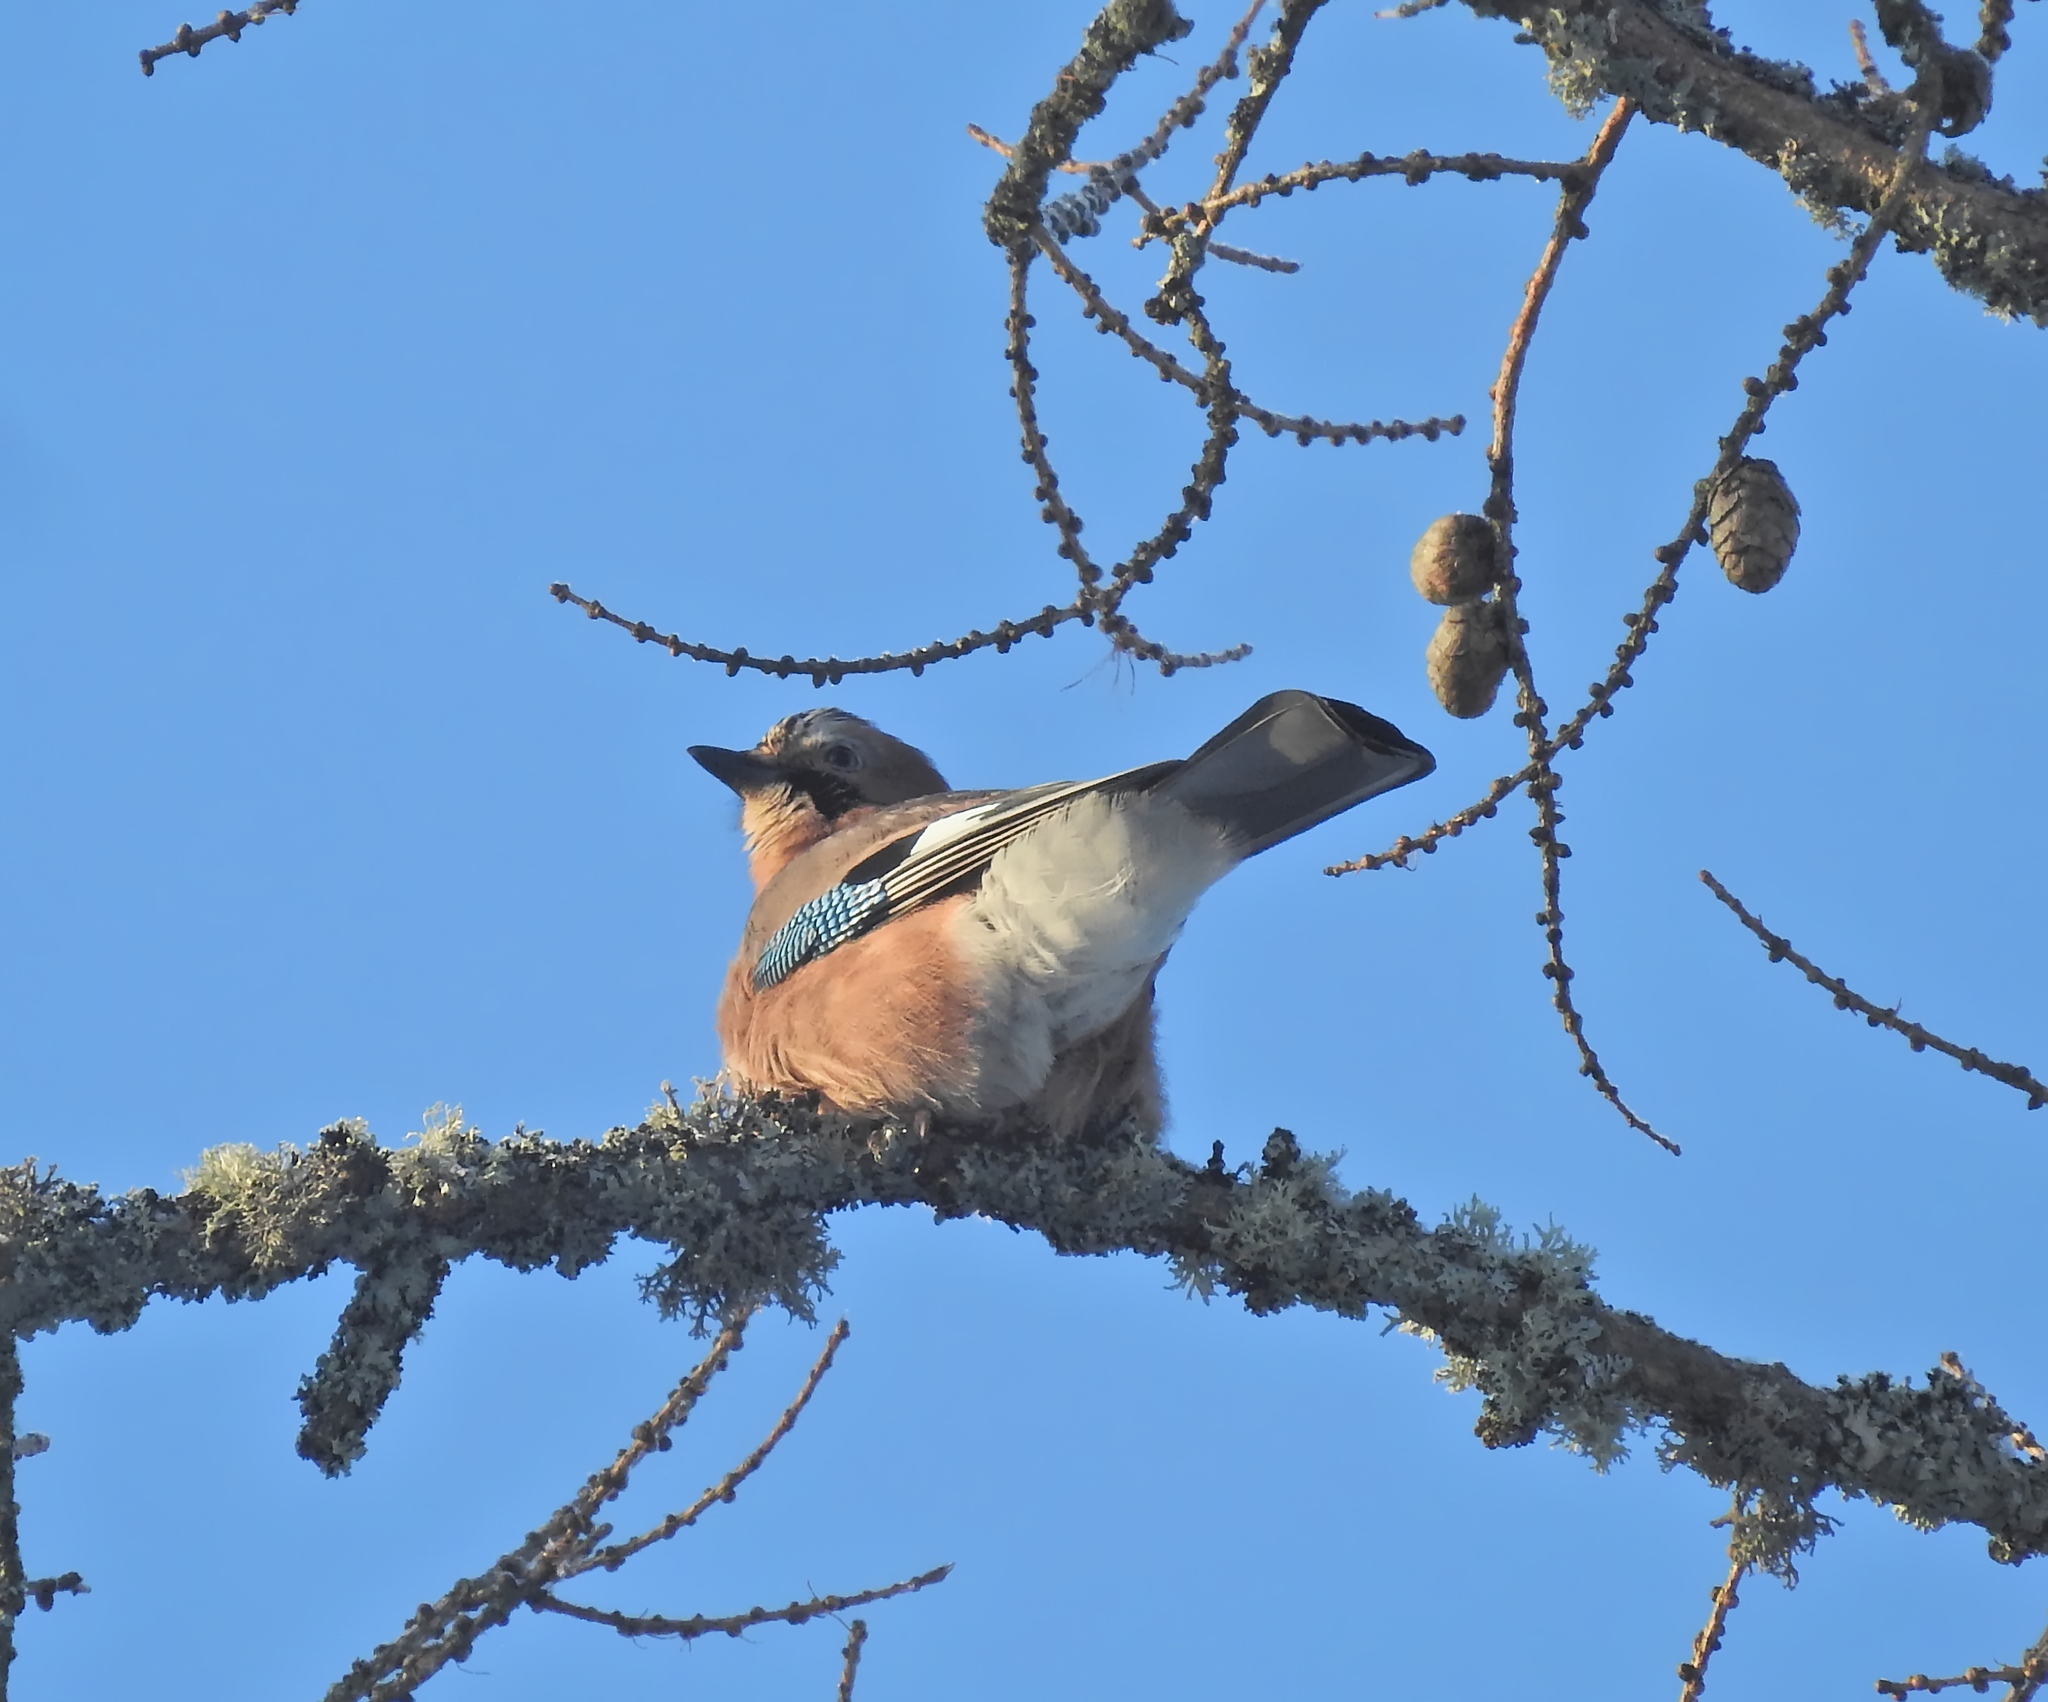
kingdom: Animalia
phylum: Chordata
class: Aves
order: Passeriformes
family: Corvidae
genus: Garrulus
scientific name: Garrulus glandarius
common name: Eurasian jay
